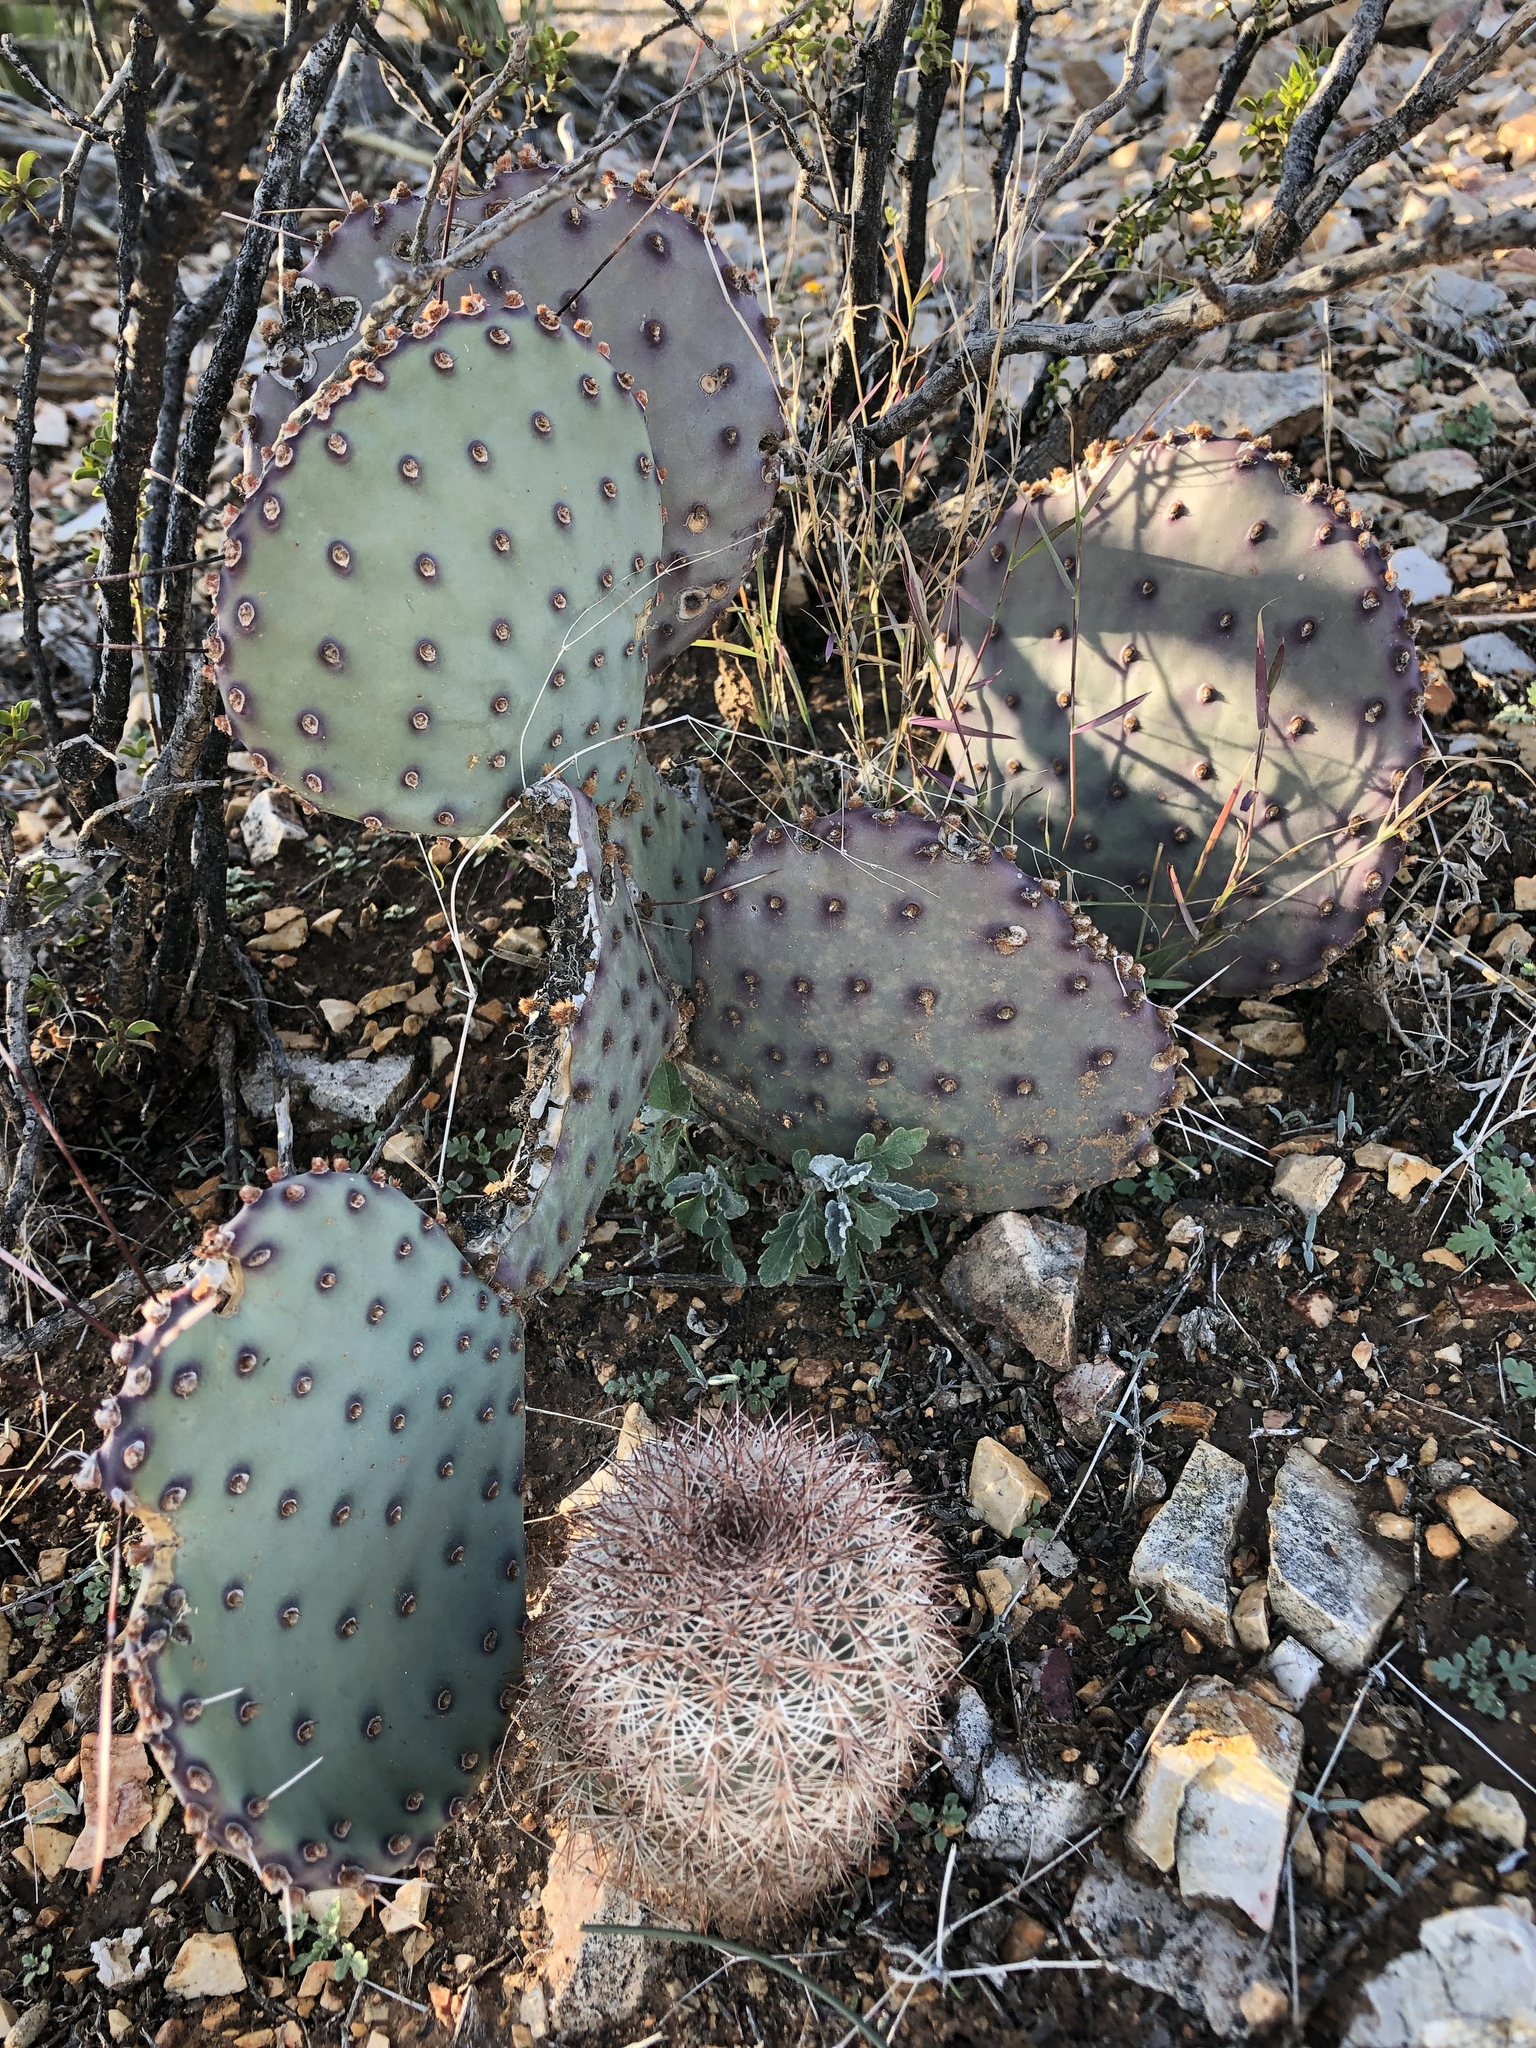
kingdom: Plantae
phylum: Tracheophyta
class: Magnoliopsida
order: Caryophyllales
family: Cactaceae
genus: Opuntia
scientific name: Opuntia macrocentra
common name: Purple prickly-pear
